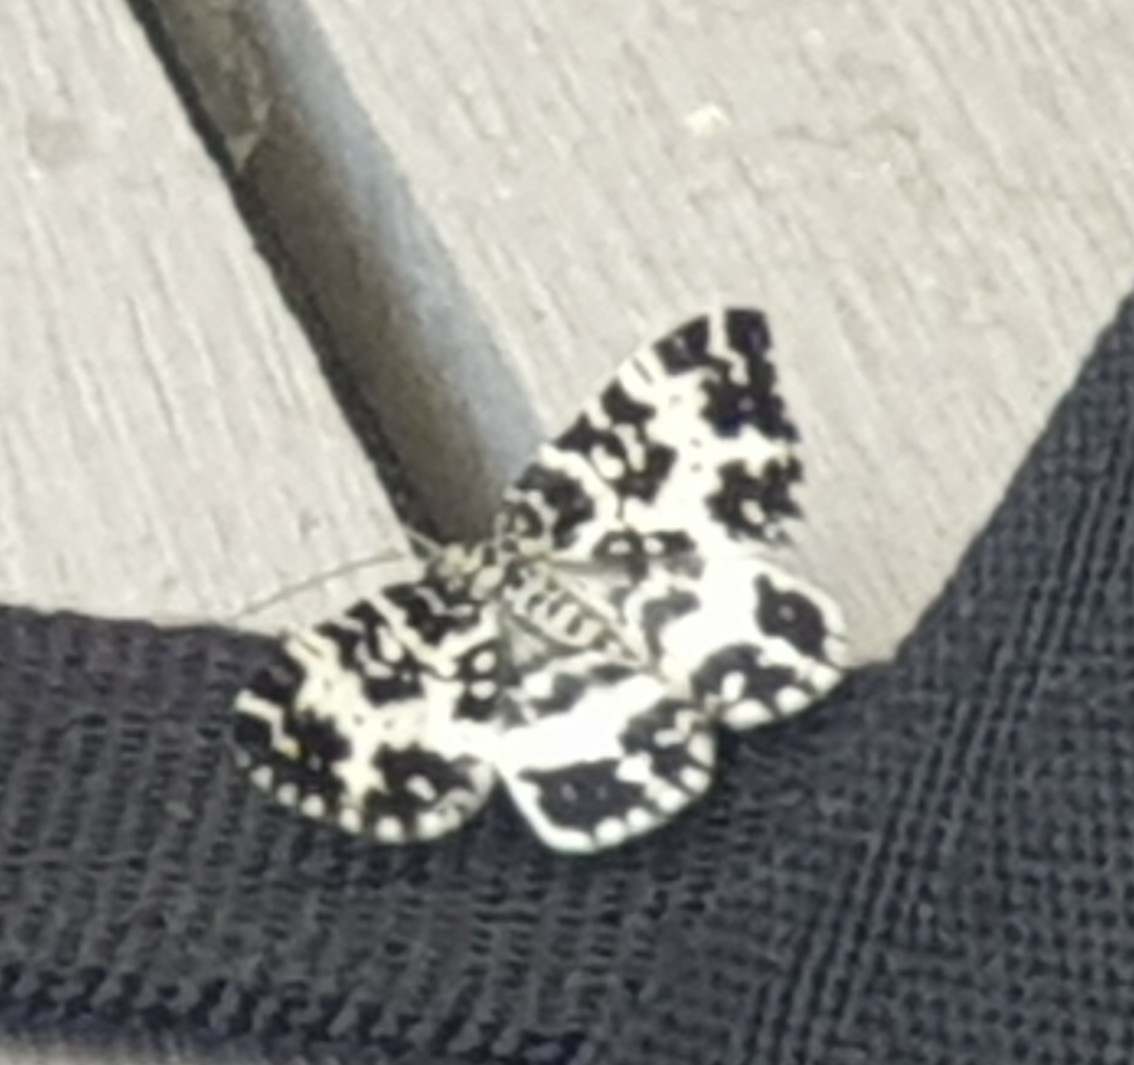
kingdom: Animalia
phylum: Arthropoda
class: Insecta
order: Lepidoptera
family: Geometridae
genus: Rheumaptera
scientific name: Rheumaptera hastata
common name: Argent & sable
